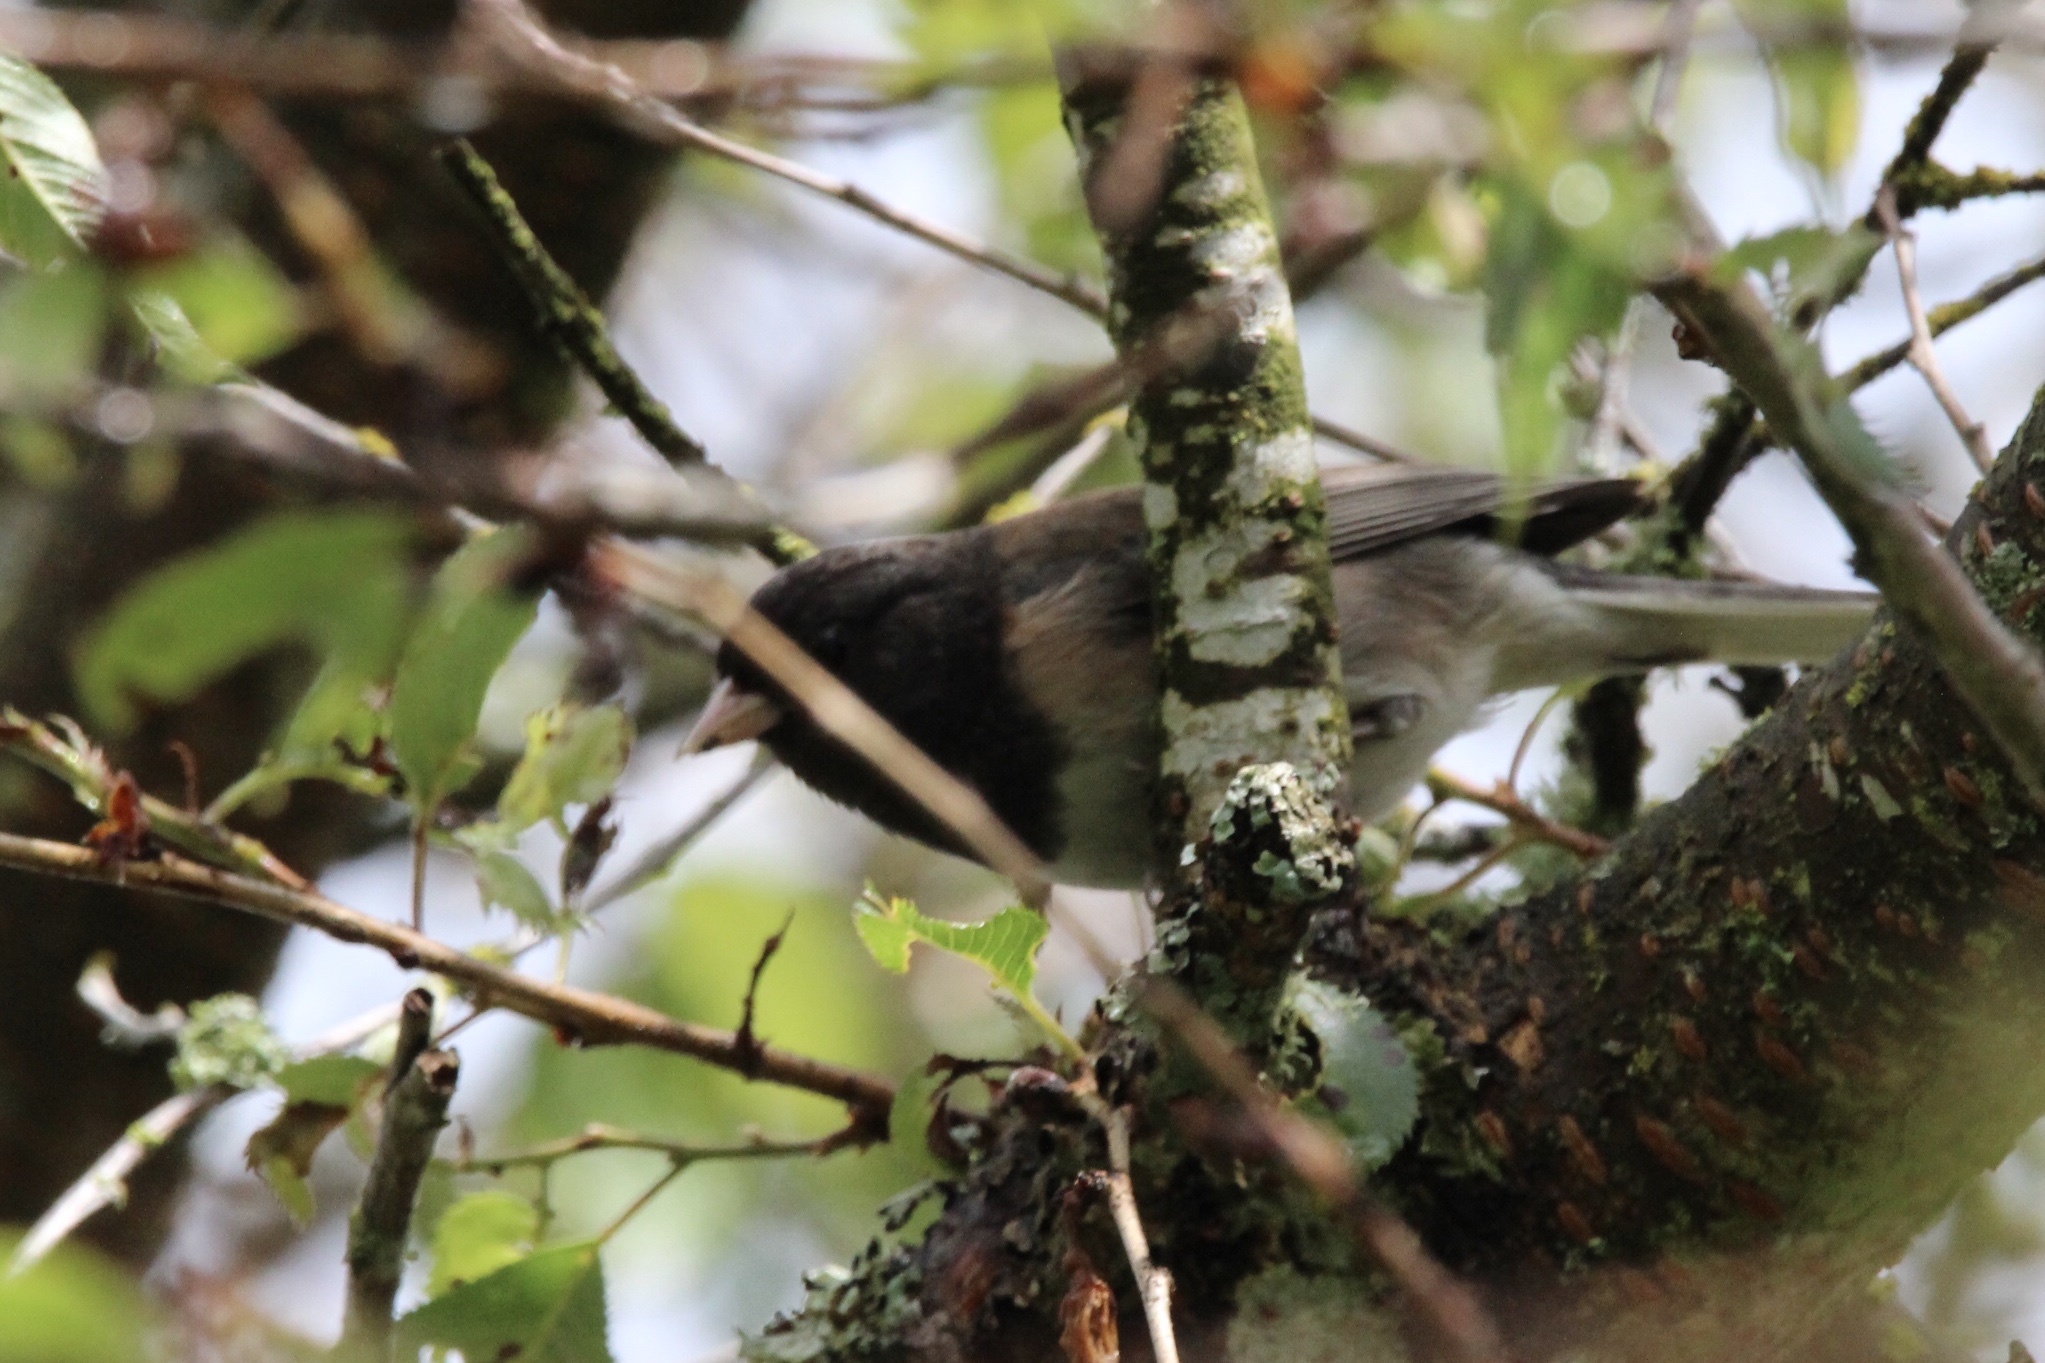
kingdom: Animalia
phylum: Chordata
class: Aves
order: Passeriformes
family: Passerellidae
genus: Junco
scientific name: Junco hyemalis
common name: Dark-eyed junco
